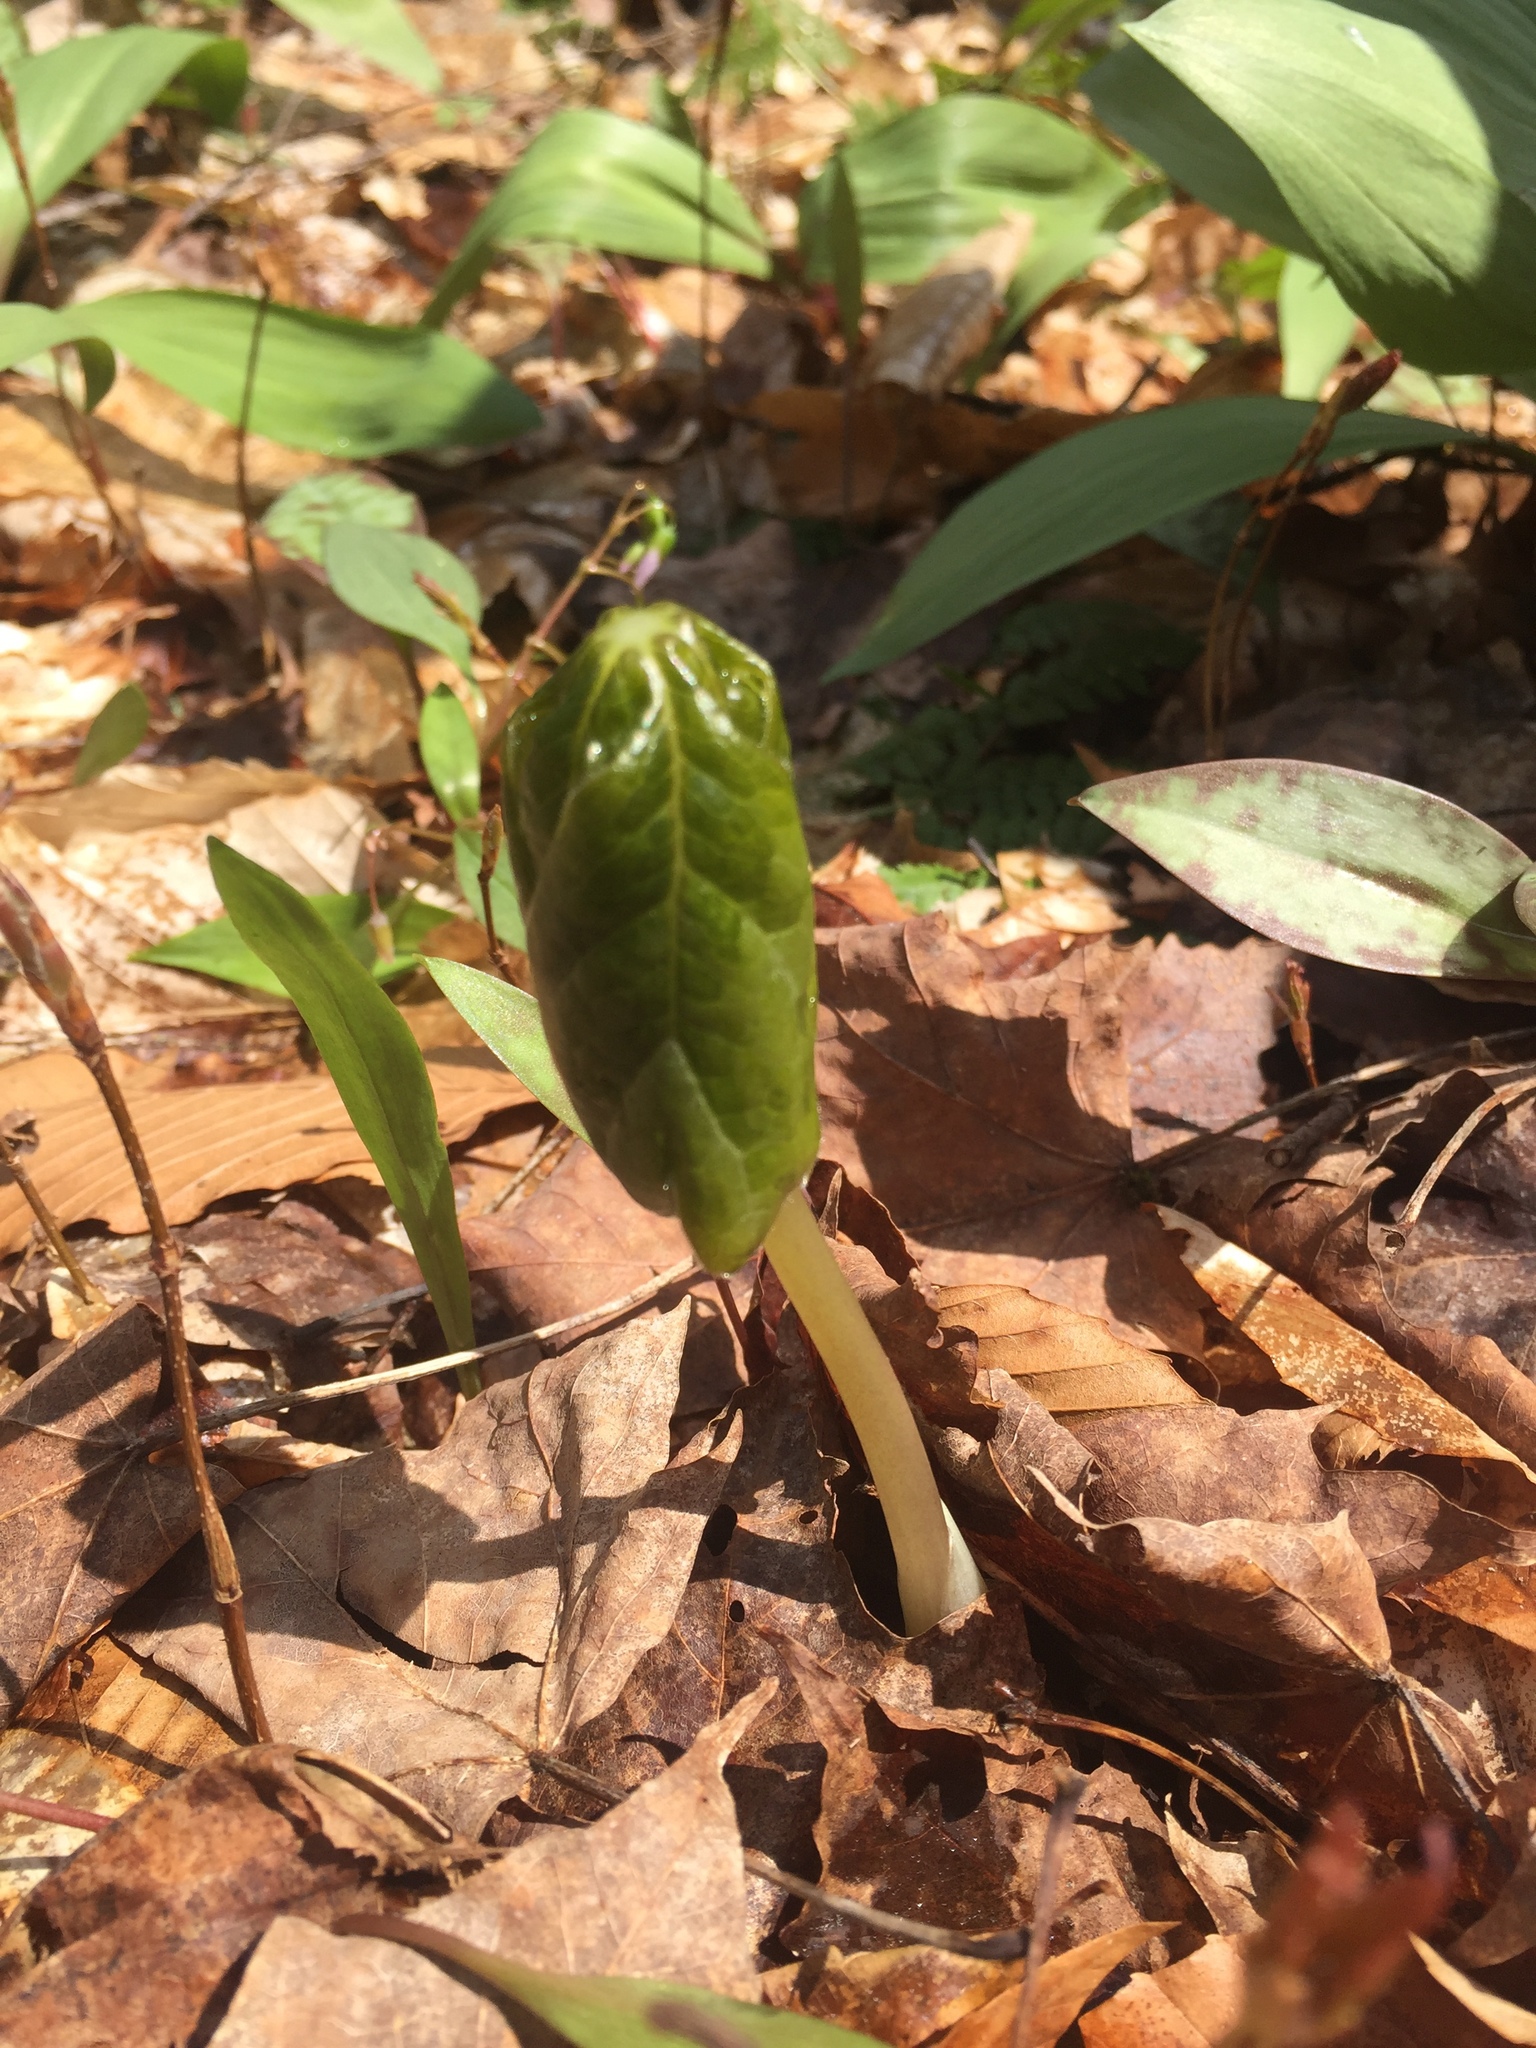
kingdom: Plantae
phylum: Tracheophyta
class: Magnoliopsida
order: Ranunculales
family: Berberidaceae
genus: Podophyllum
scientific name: Podophyllum peltatum
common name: Wild mandrake
